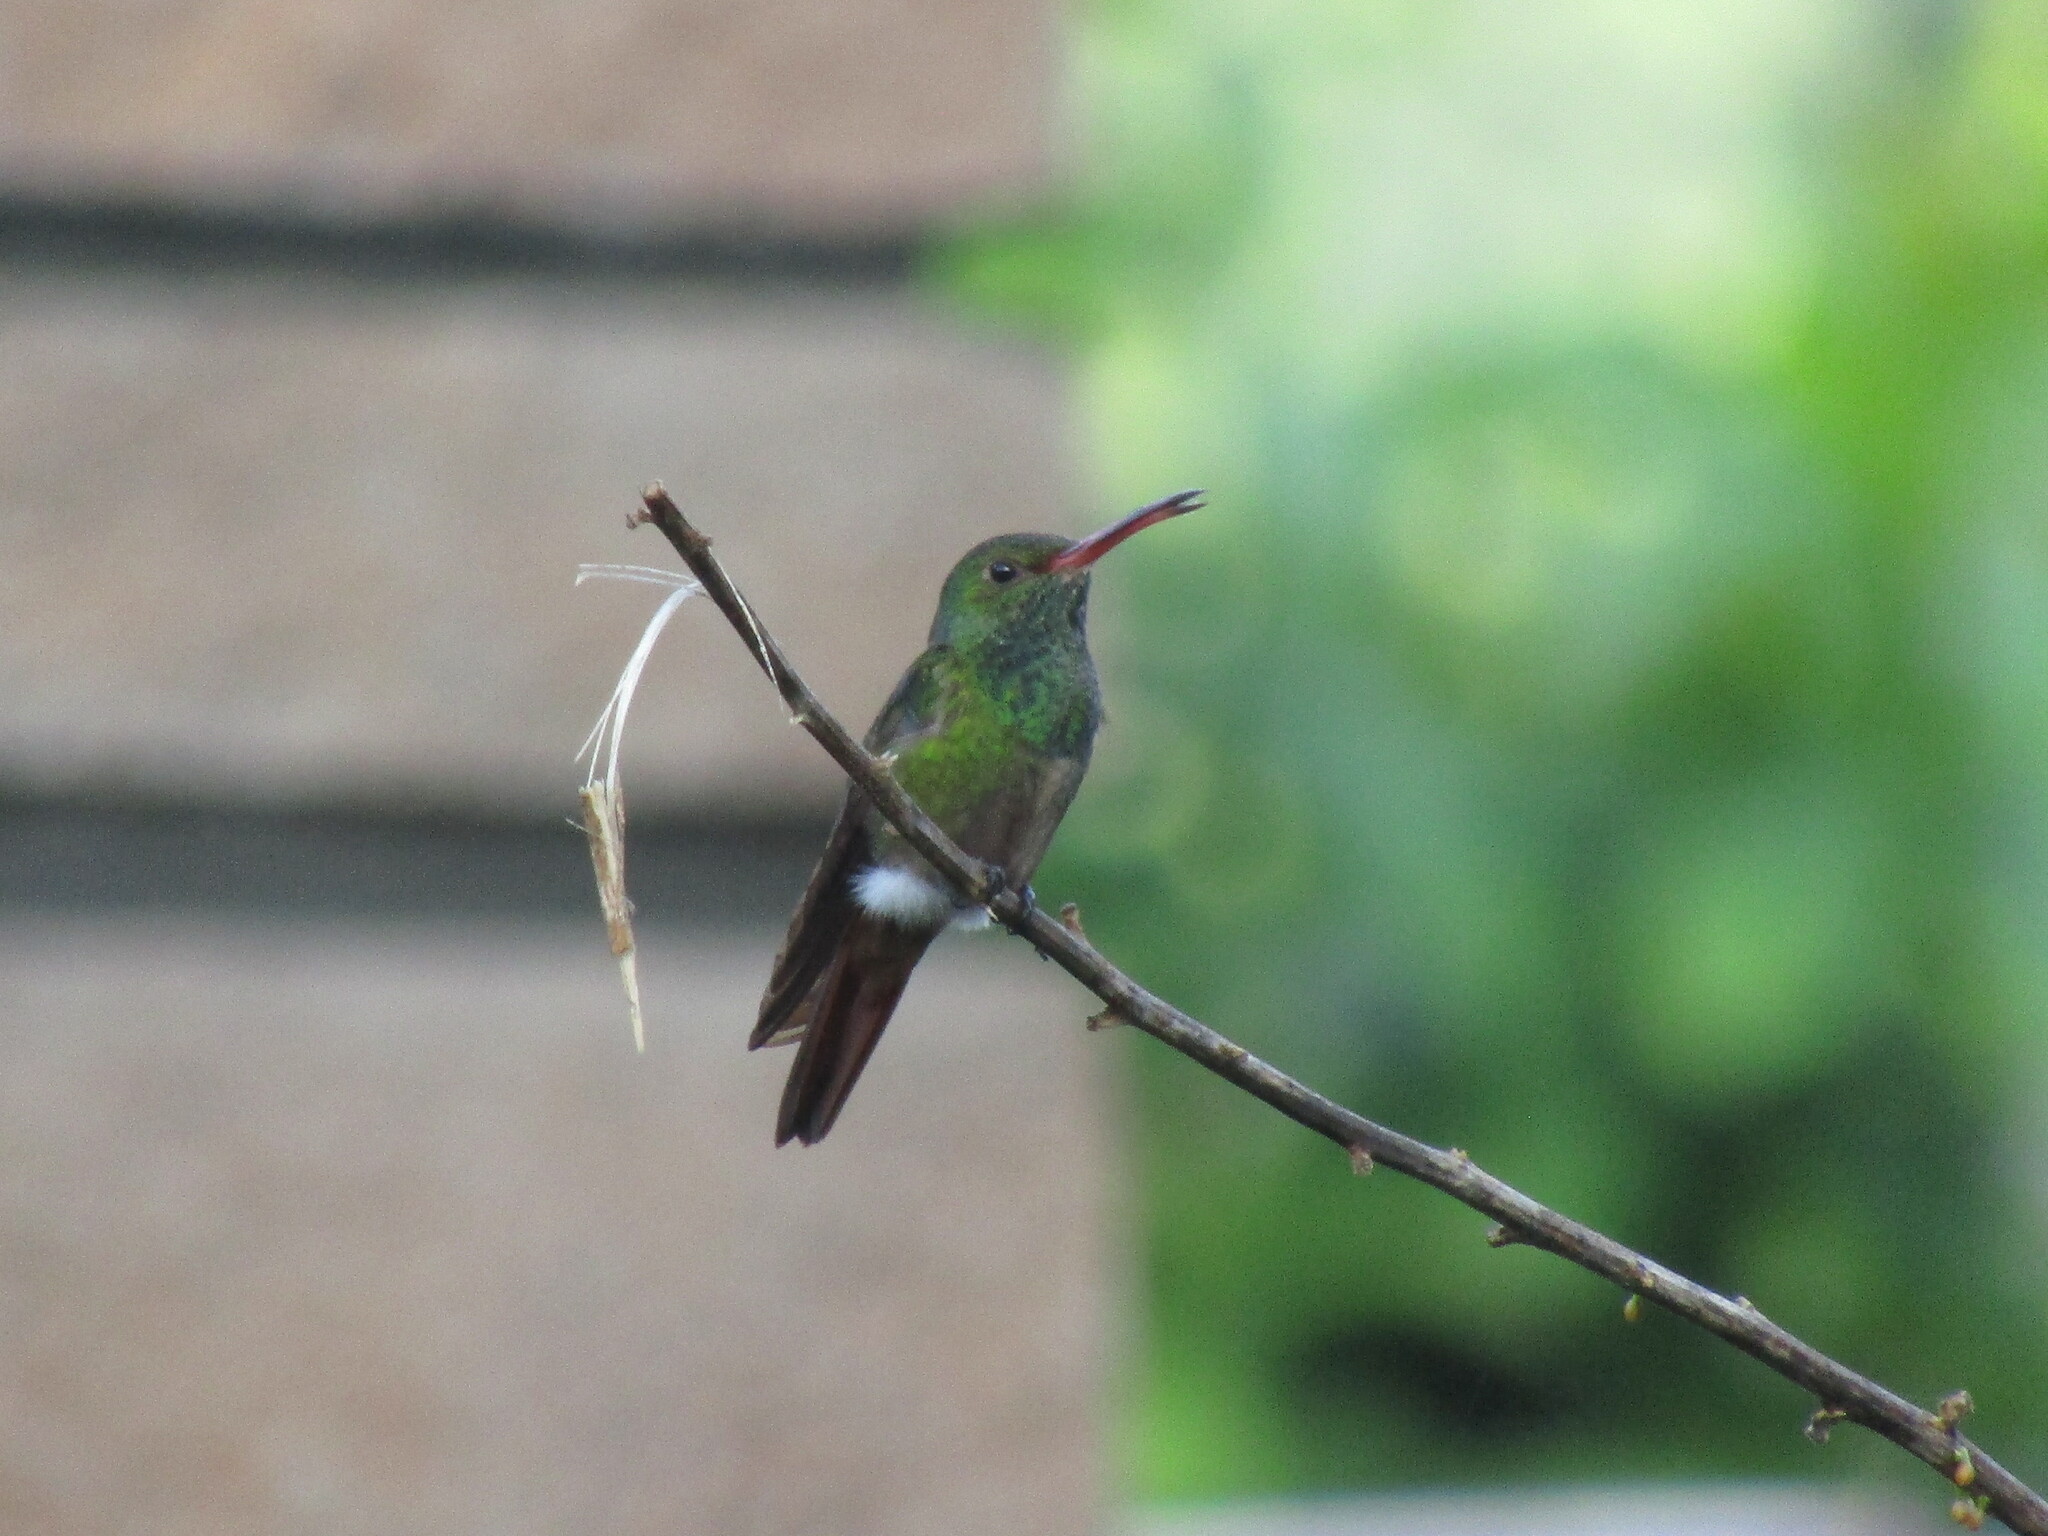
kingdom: Animalia
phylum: Chordata
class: Aves
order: Apodiformes
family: Trochilidae
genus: Amazilia
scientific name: Amazilia tzacatl
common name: Rufous-tailed hummingbird
